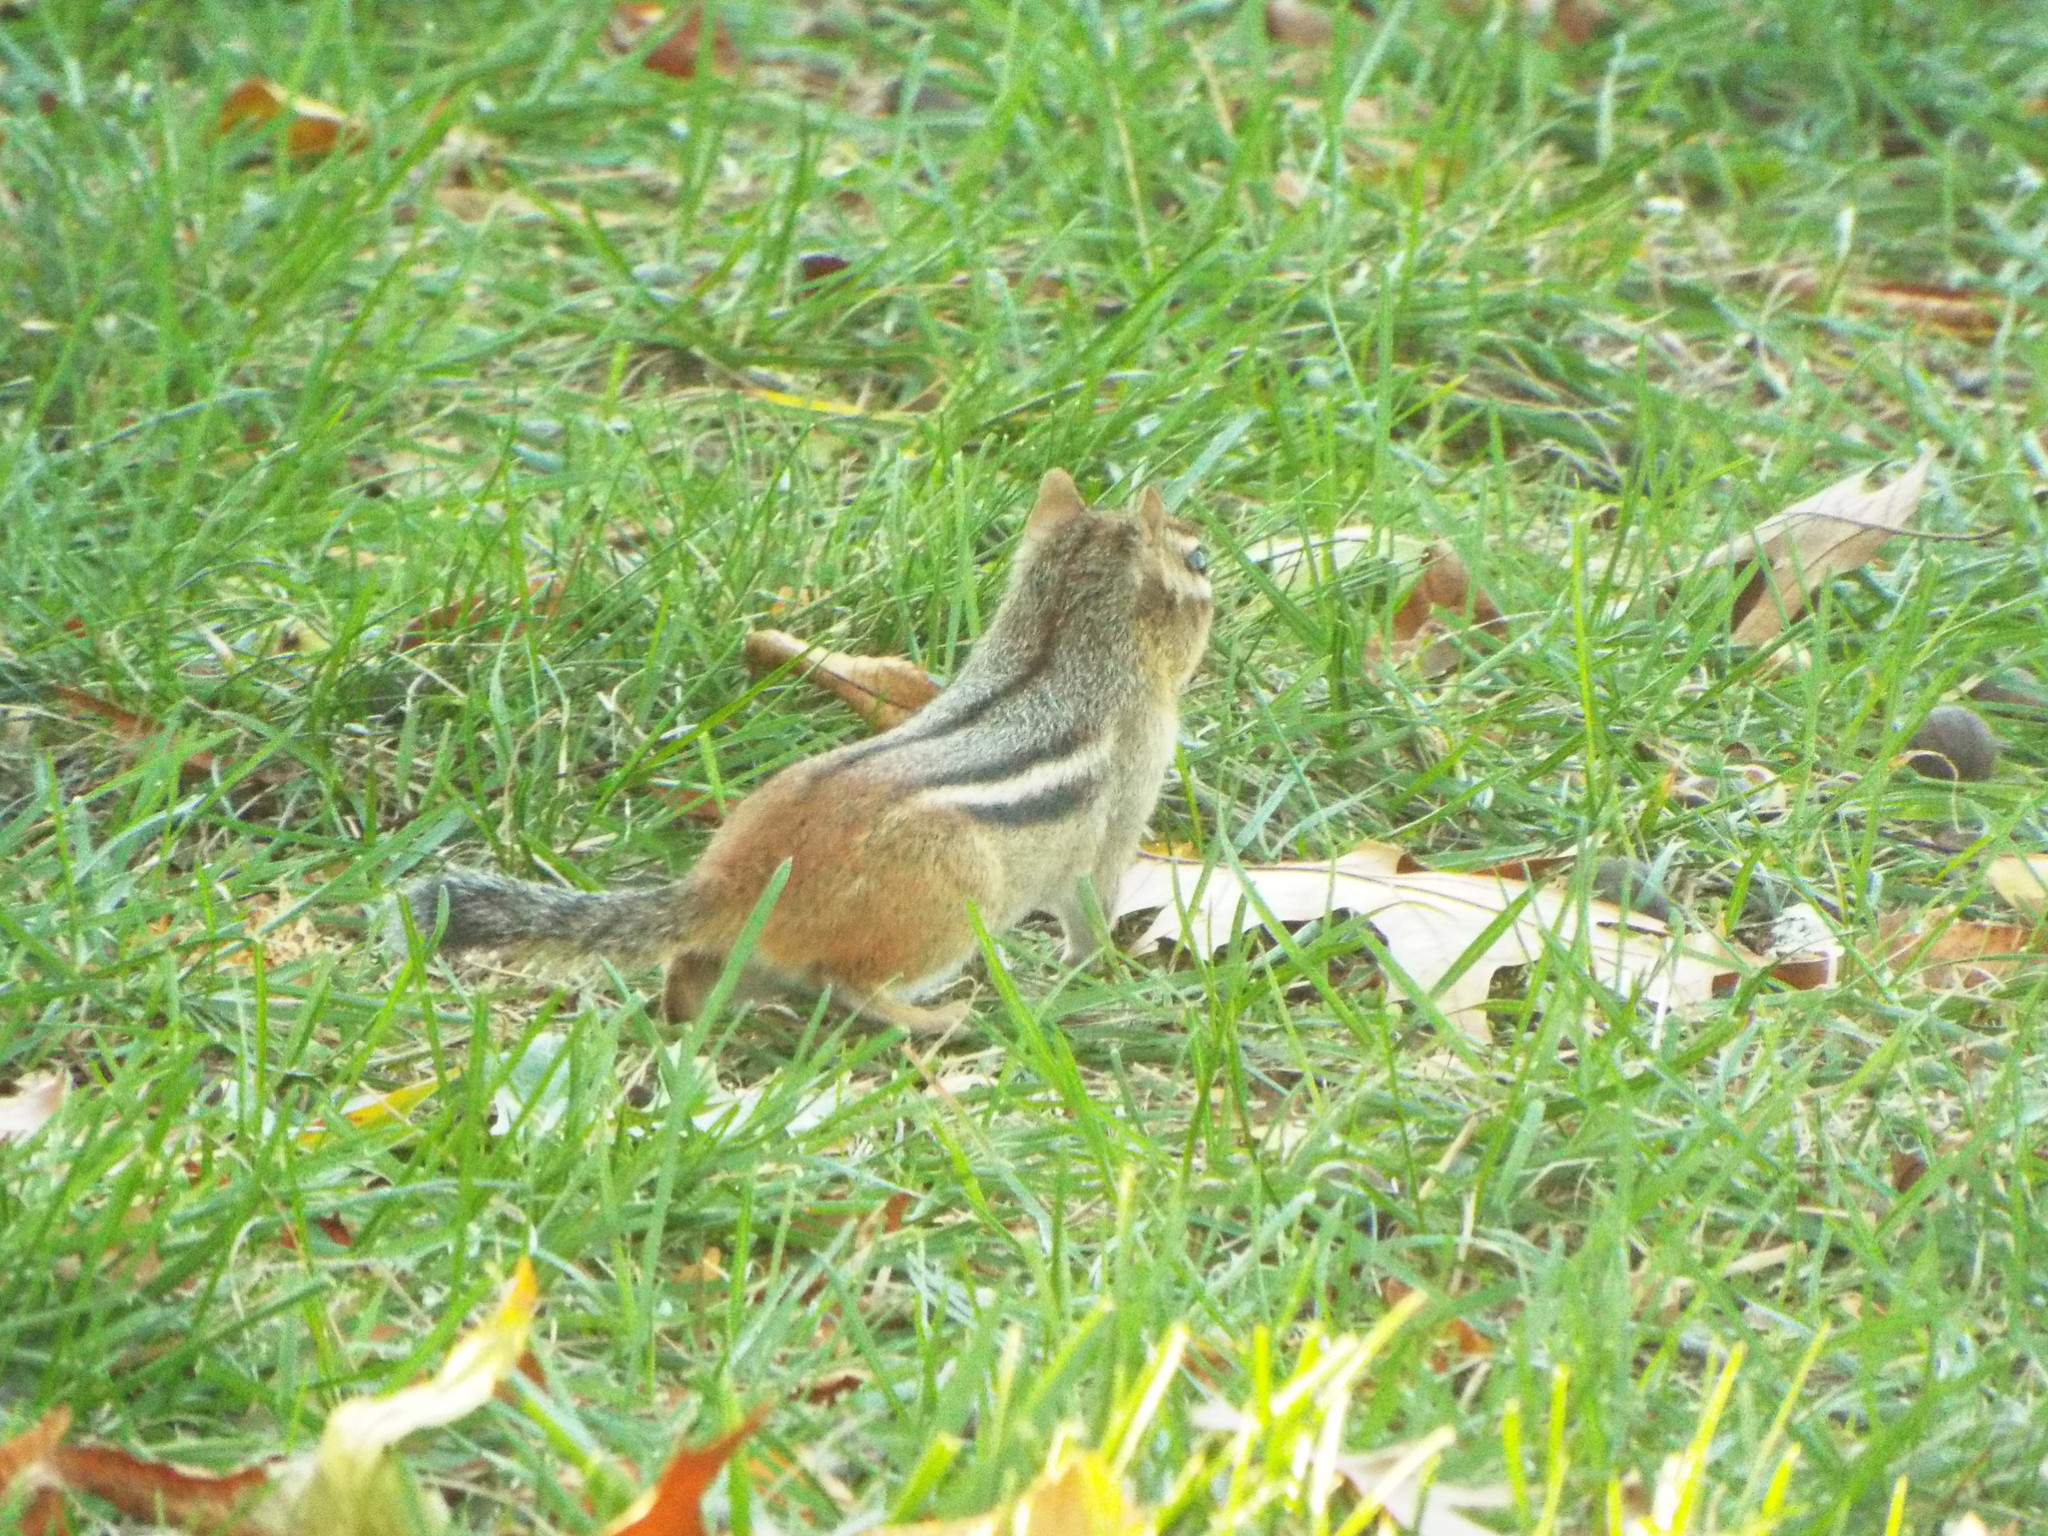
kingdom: Animalia
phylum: Chordata
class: Mammalia
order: Rodentia
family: Sciuridae
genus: Tamias
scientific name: Tamias striatus
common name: Eastern chipmunk
